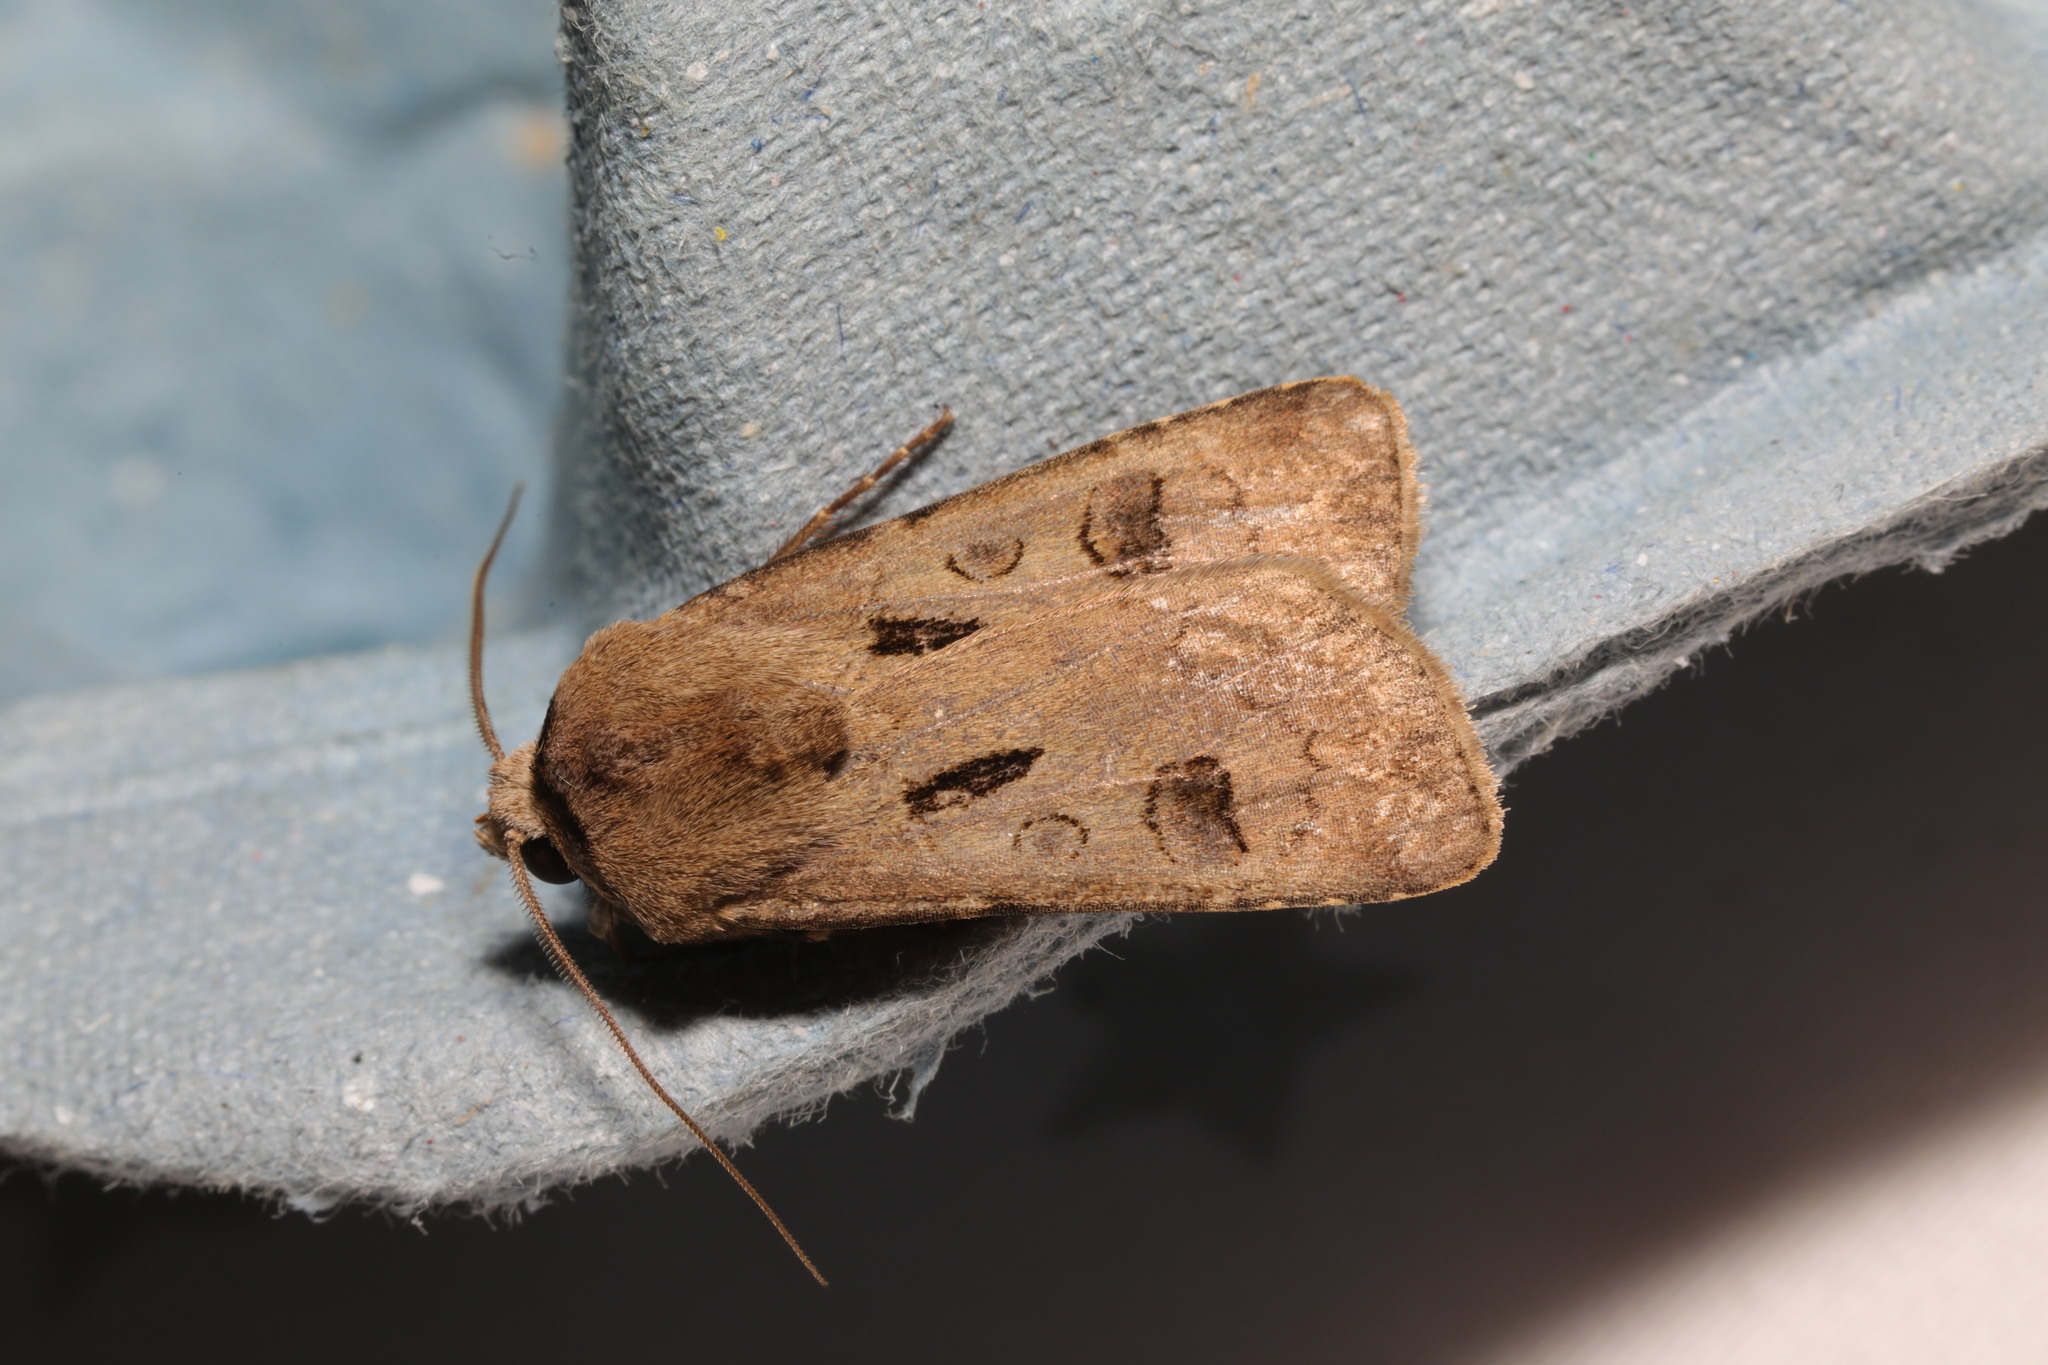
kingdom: Animalia
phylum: Arthropoda
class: Insecta
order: Lepidoptera
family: Noctuidae
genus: Agrotis
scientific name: Agrotis exclamationis
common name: Heart and dart
